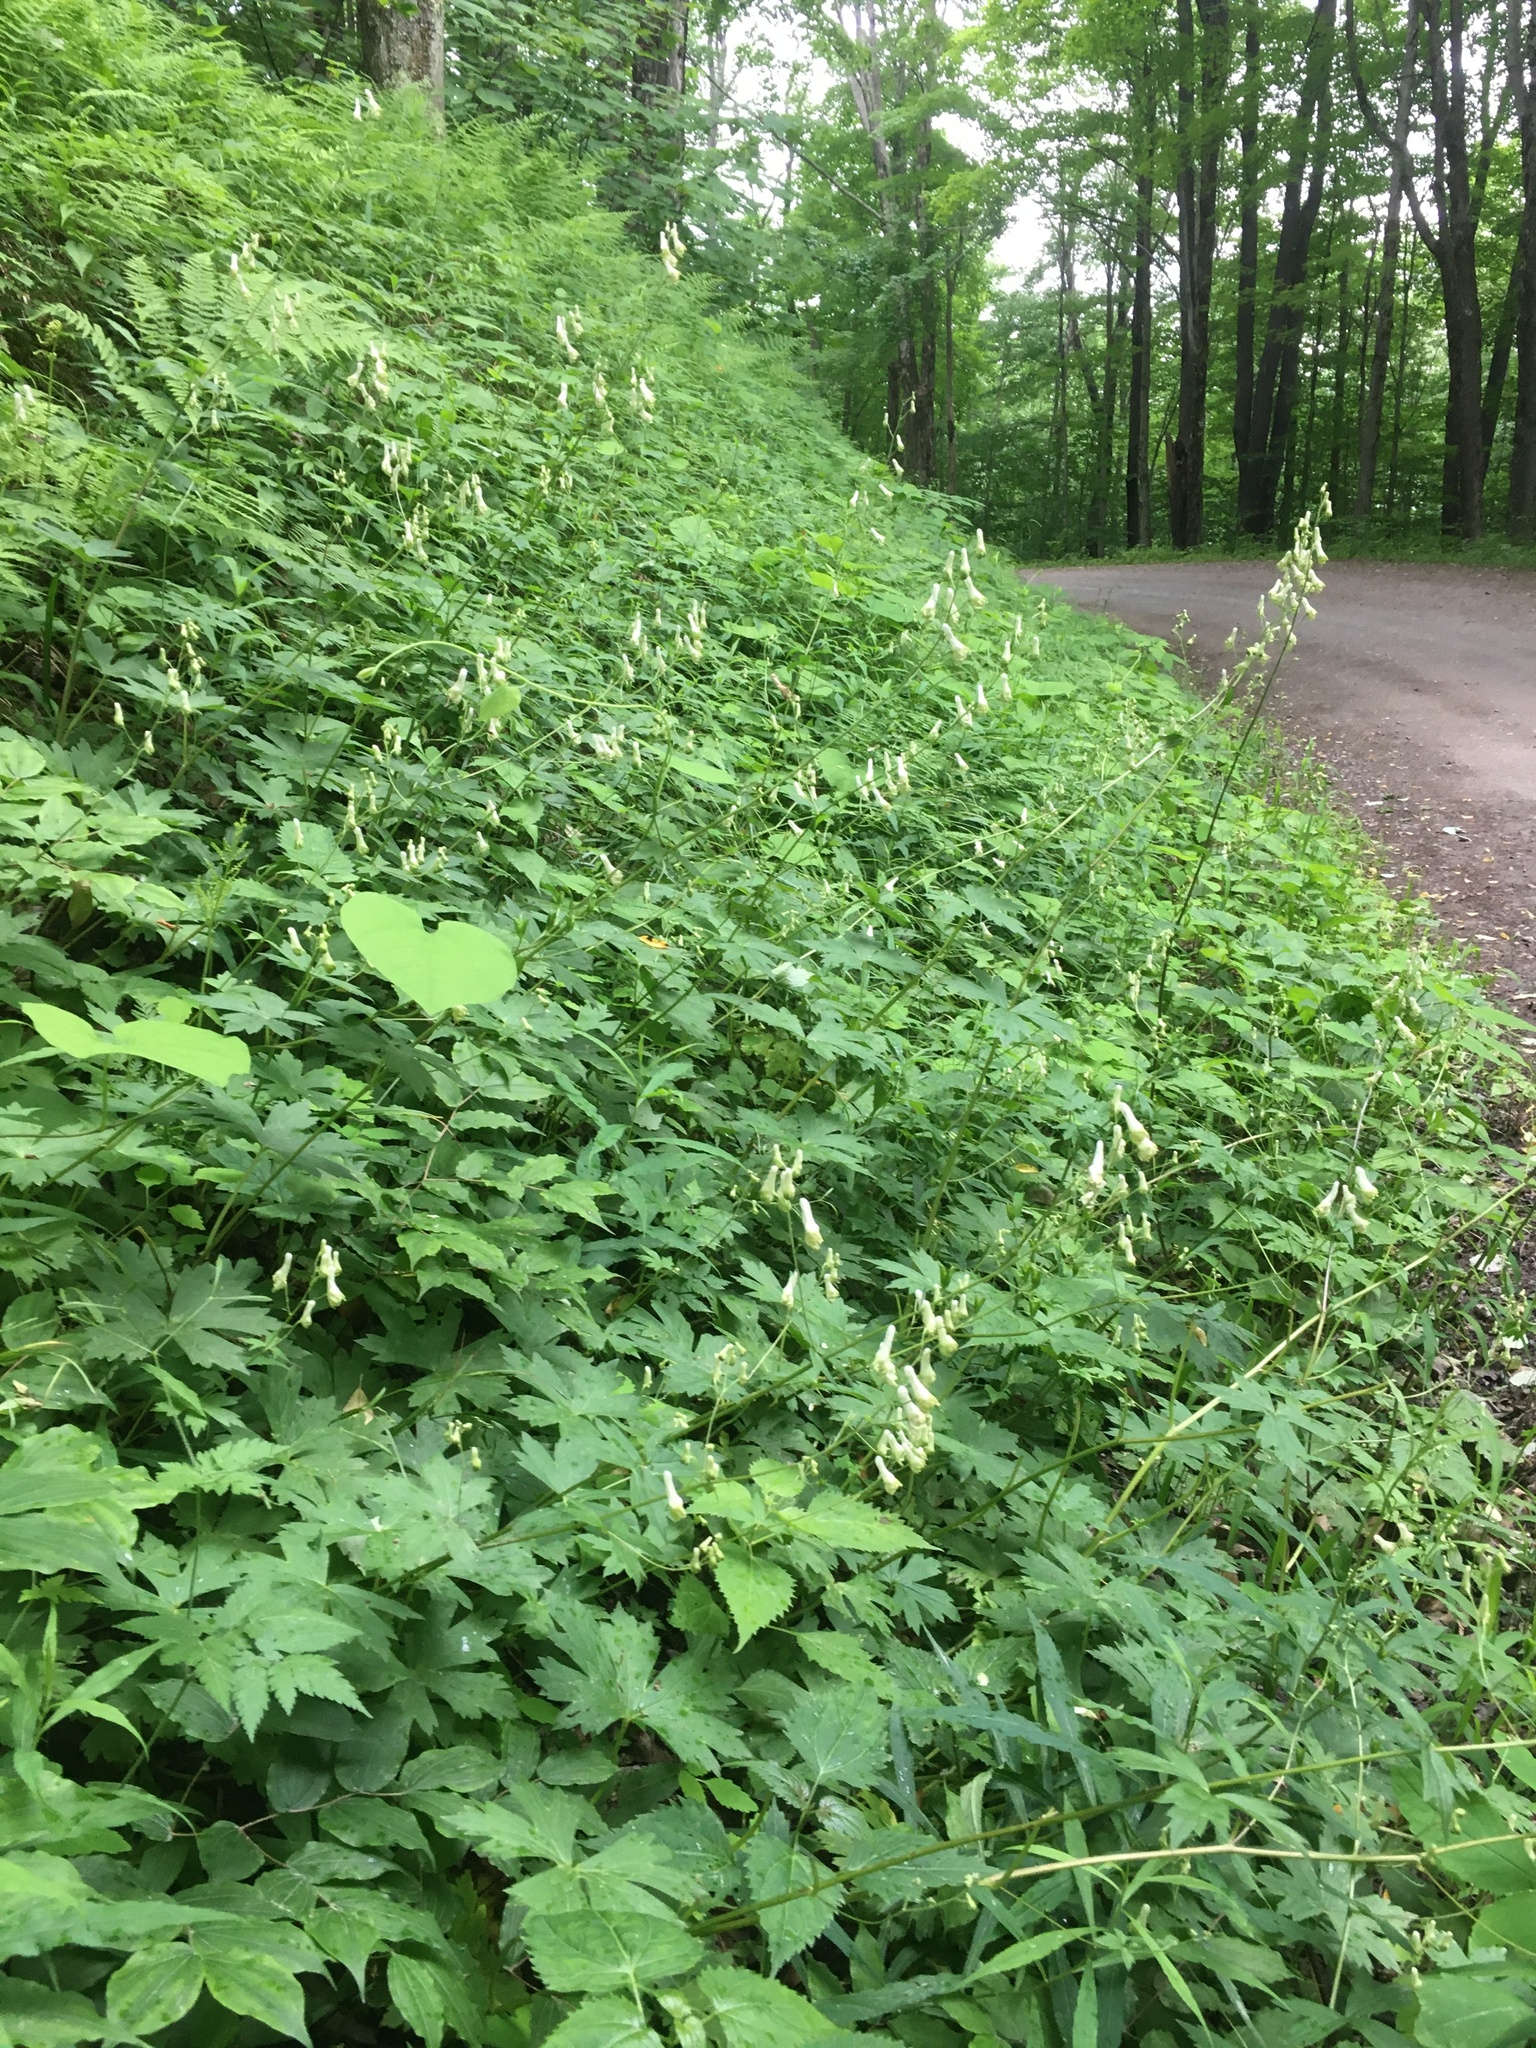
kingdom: Plantae
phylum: Tracheophyta
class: Magnoliopsida
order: Ranunculales
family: Ranunculaceae
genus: Aconitum
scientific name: Aconitum reclinatum
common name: Trailing wolfsbane
